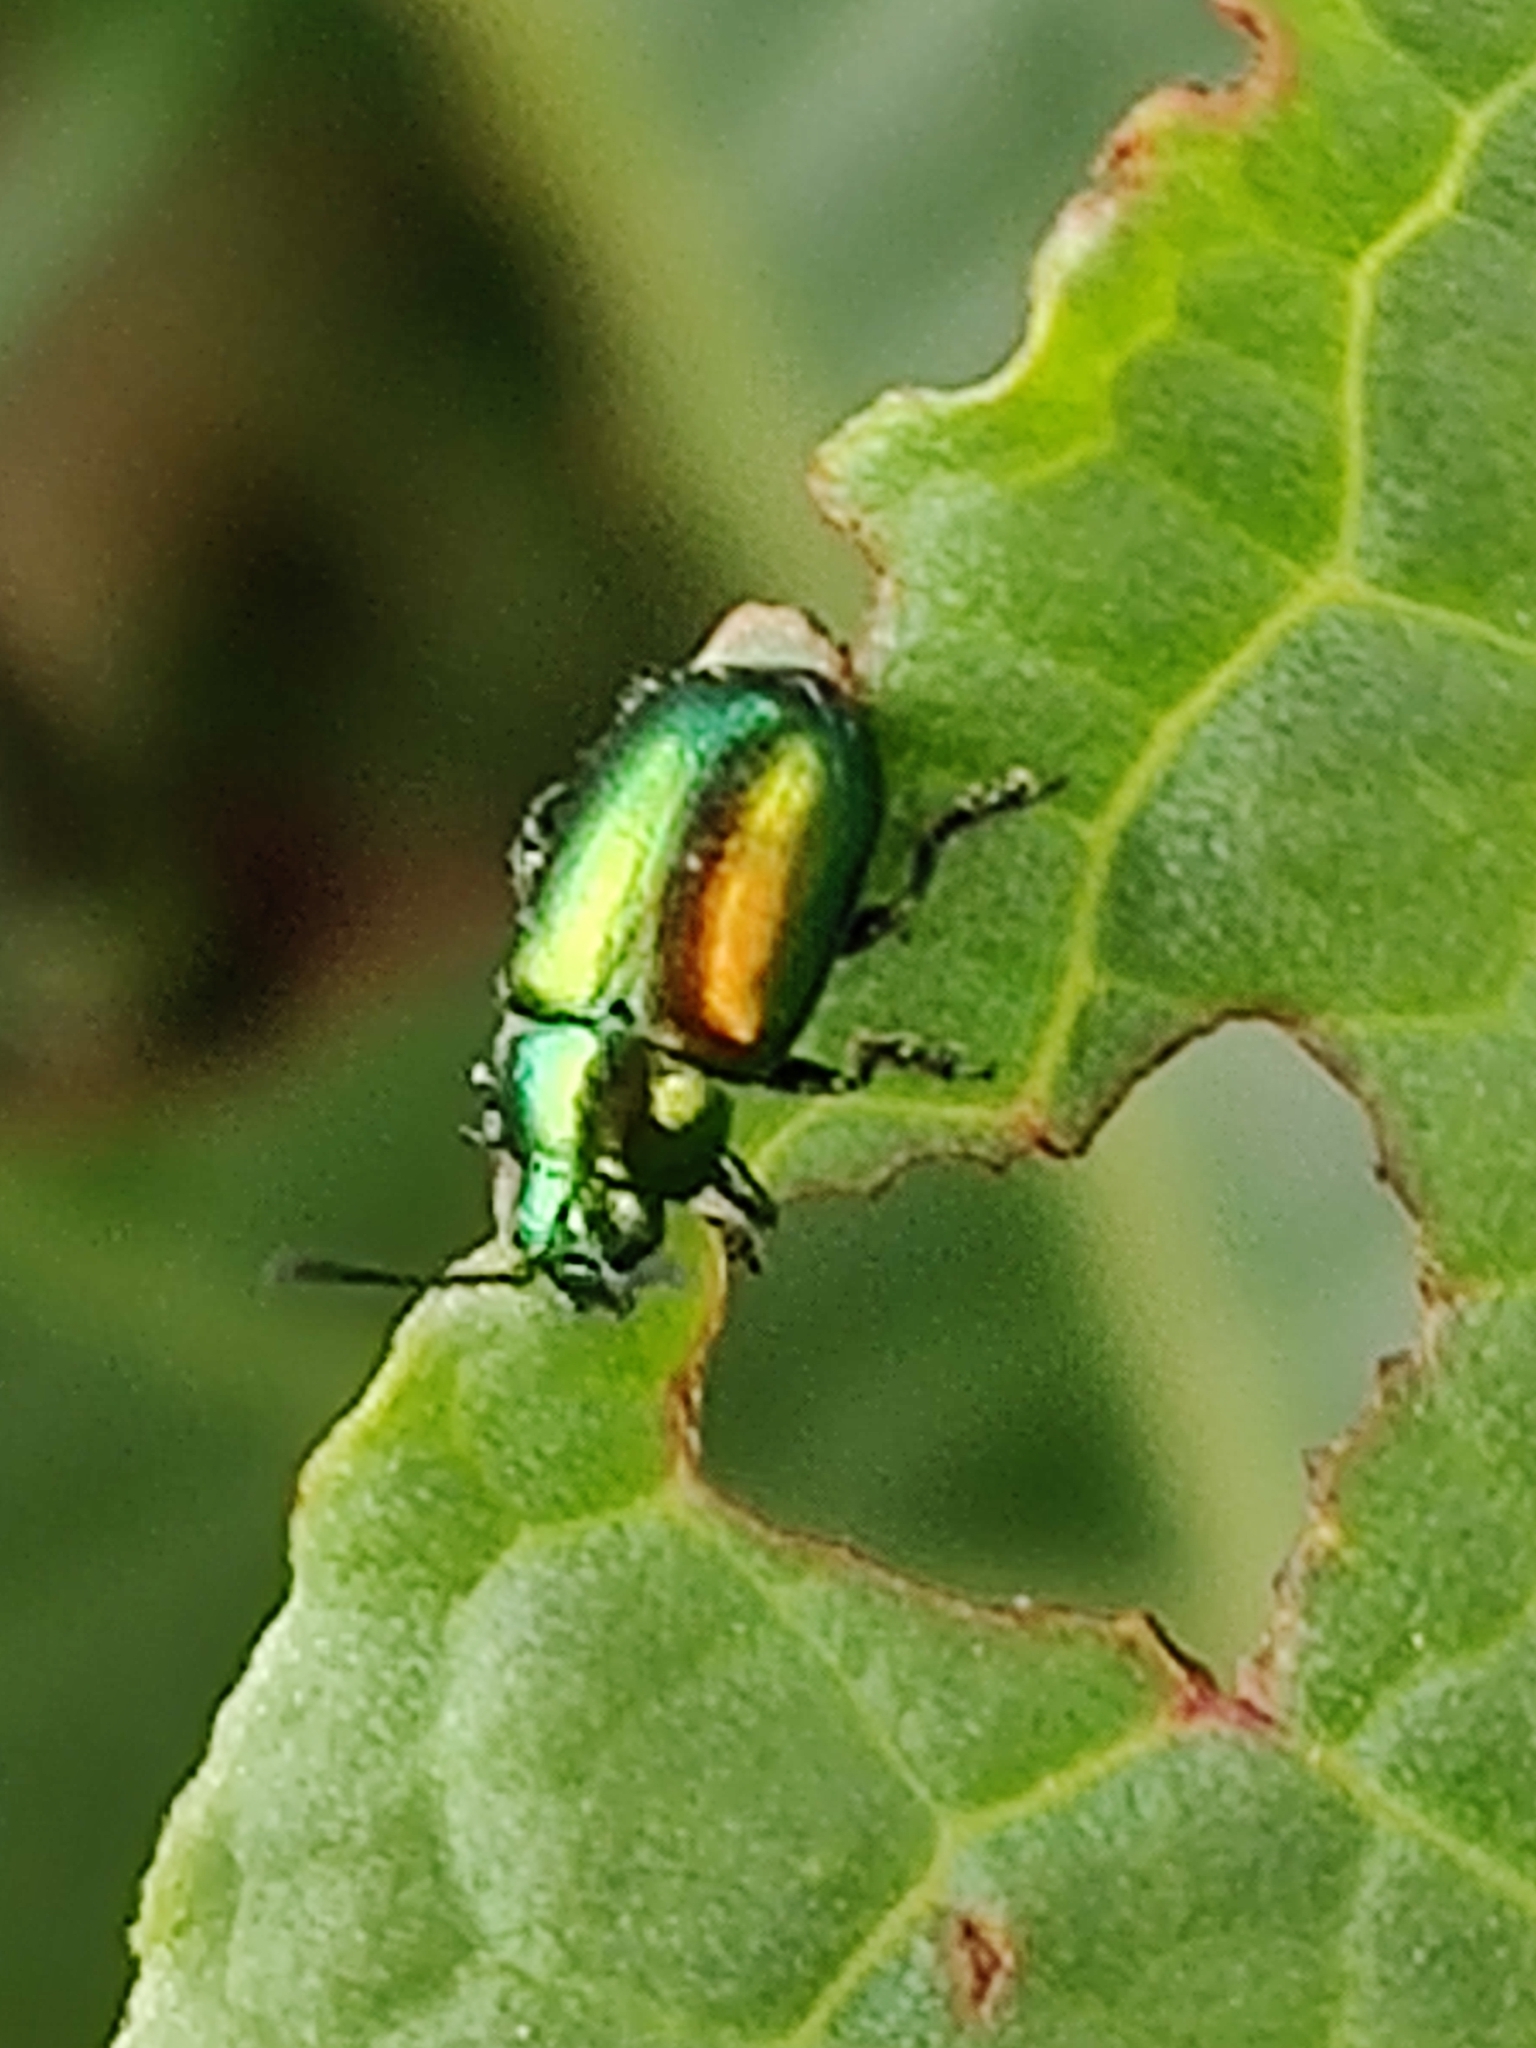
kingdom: Animalia
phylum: Arthropoda
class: Insecta
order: Coleoptera
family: Chrysomelidae
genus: Gastrophysa
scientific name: Gastrophysa viridula
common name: Green dock beetle
